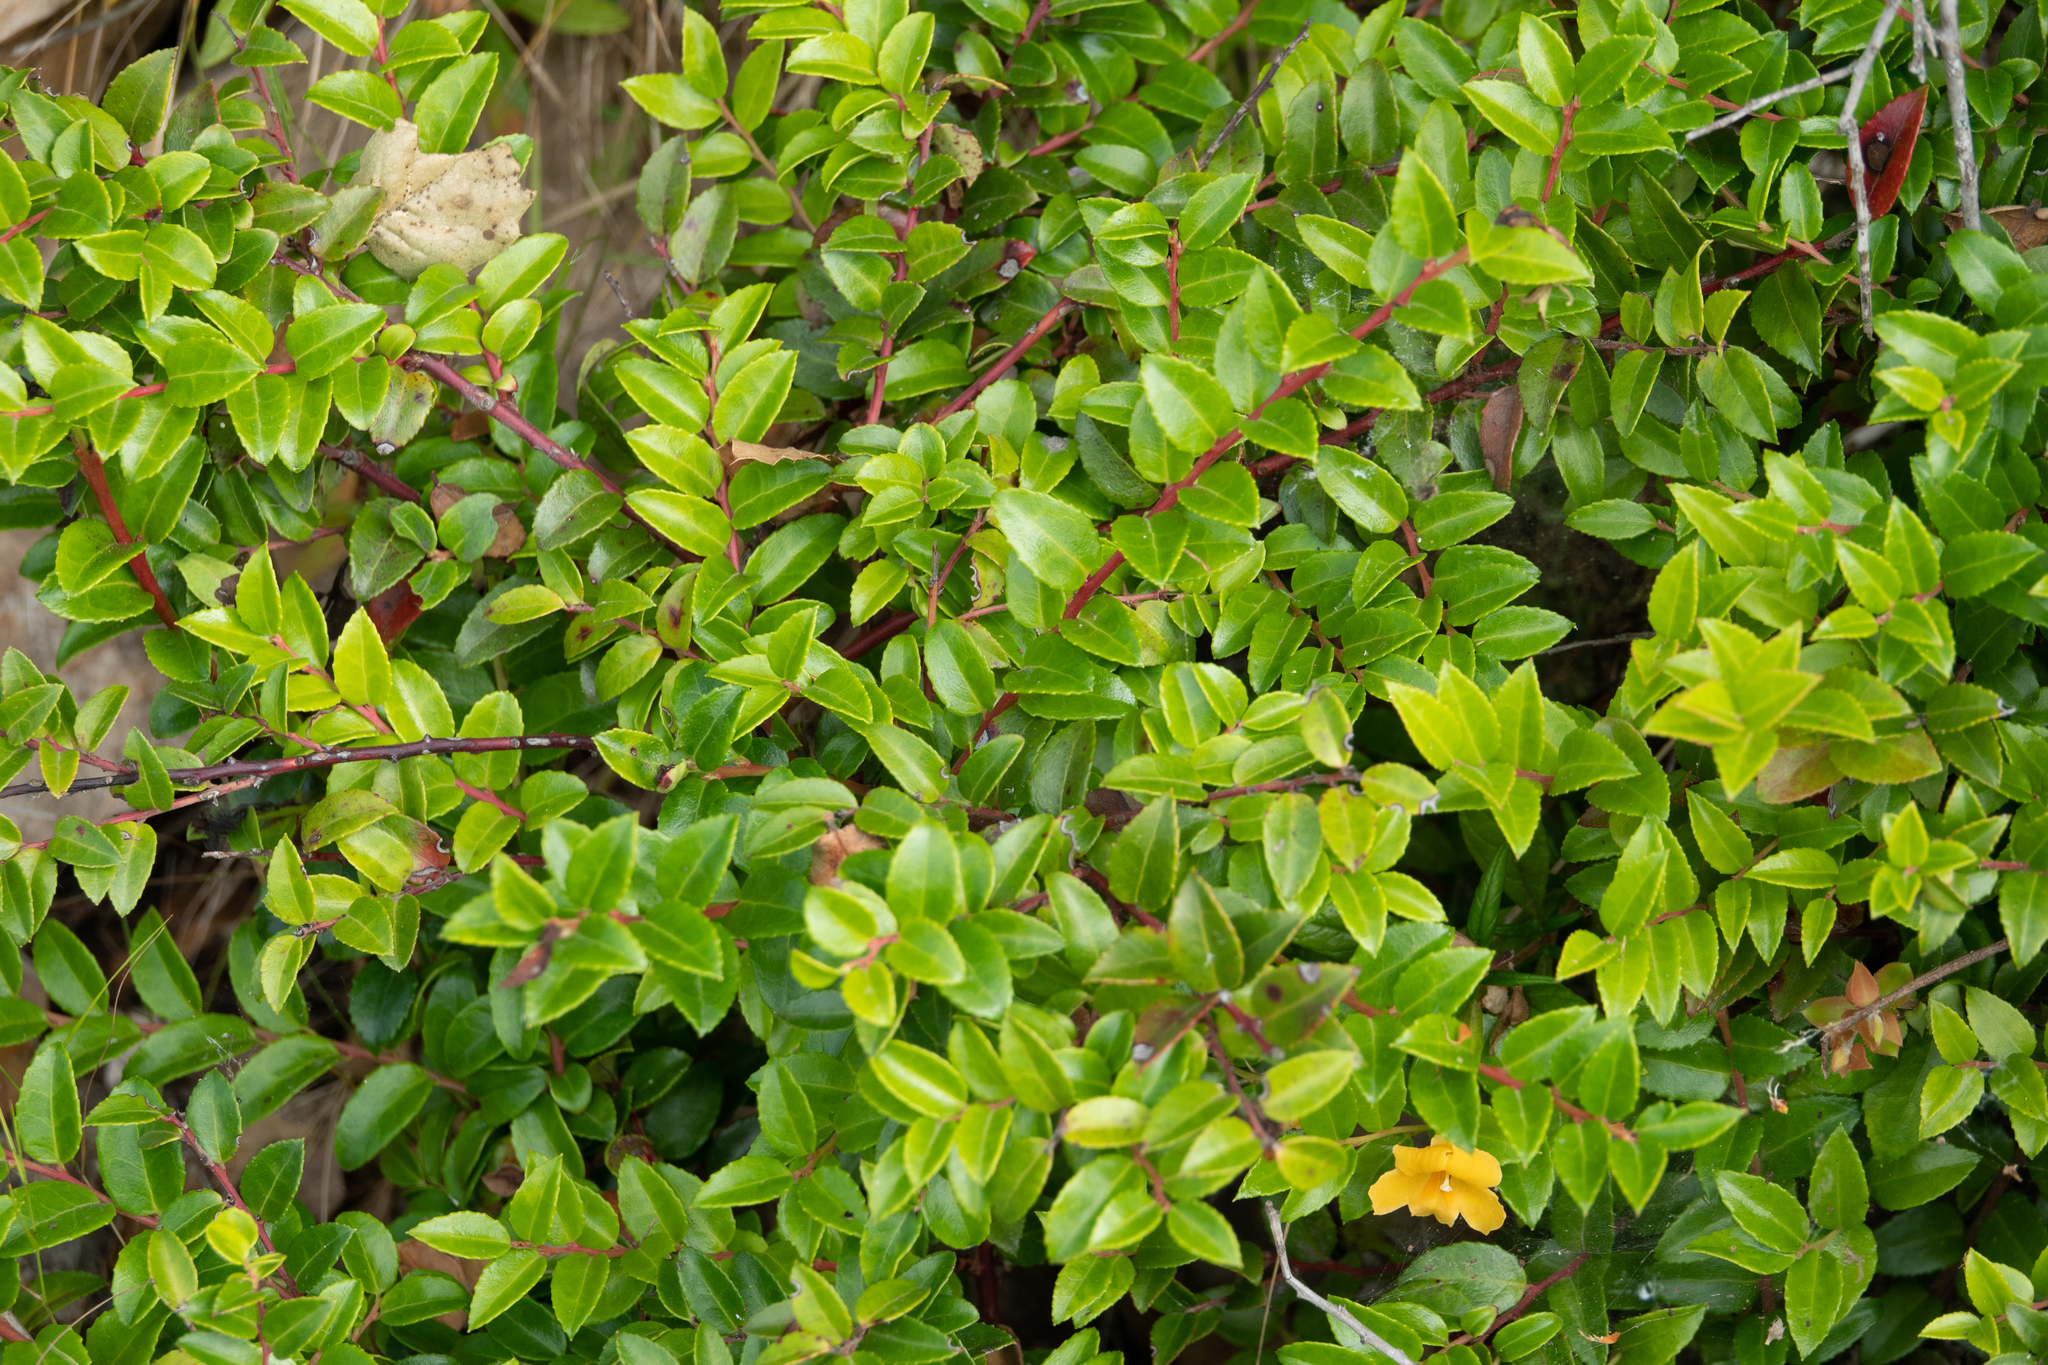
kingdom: Plantae
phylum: Tracheophyta
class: Magnoliopsida
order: Ericales
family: Ericaceae
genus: Vaccinium
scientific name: Vaccinium ovatum
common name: California-huckleberry
